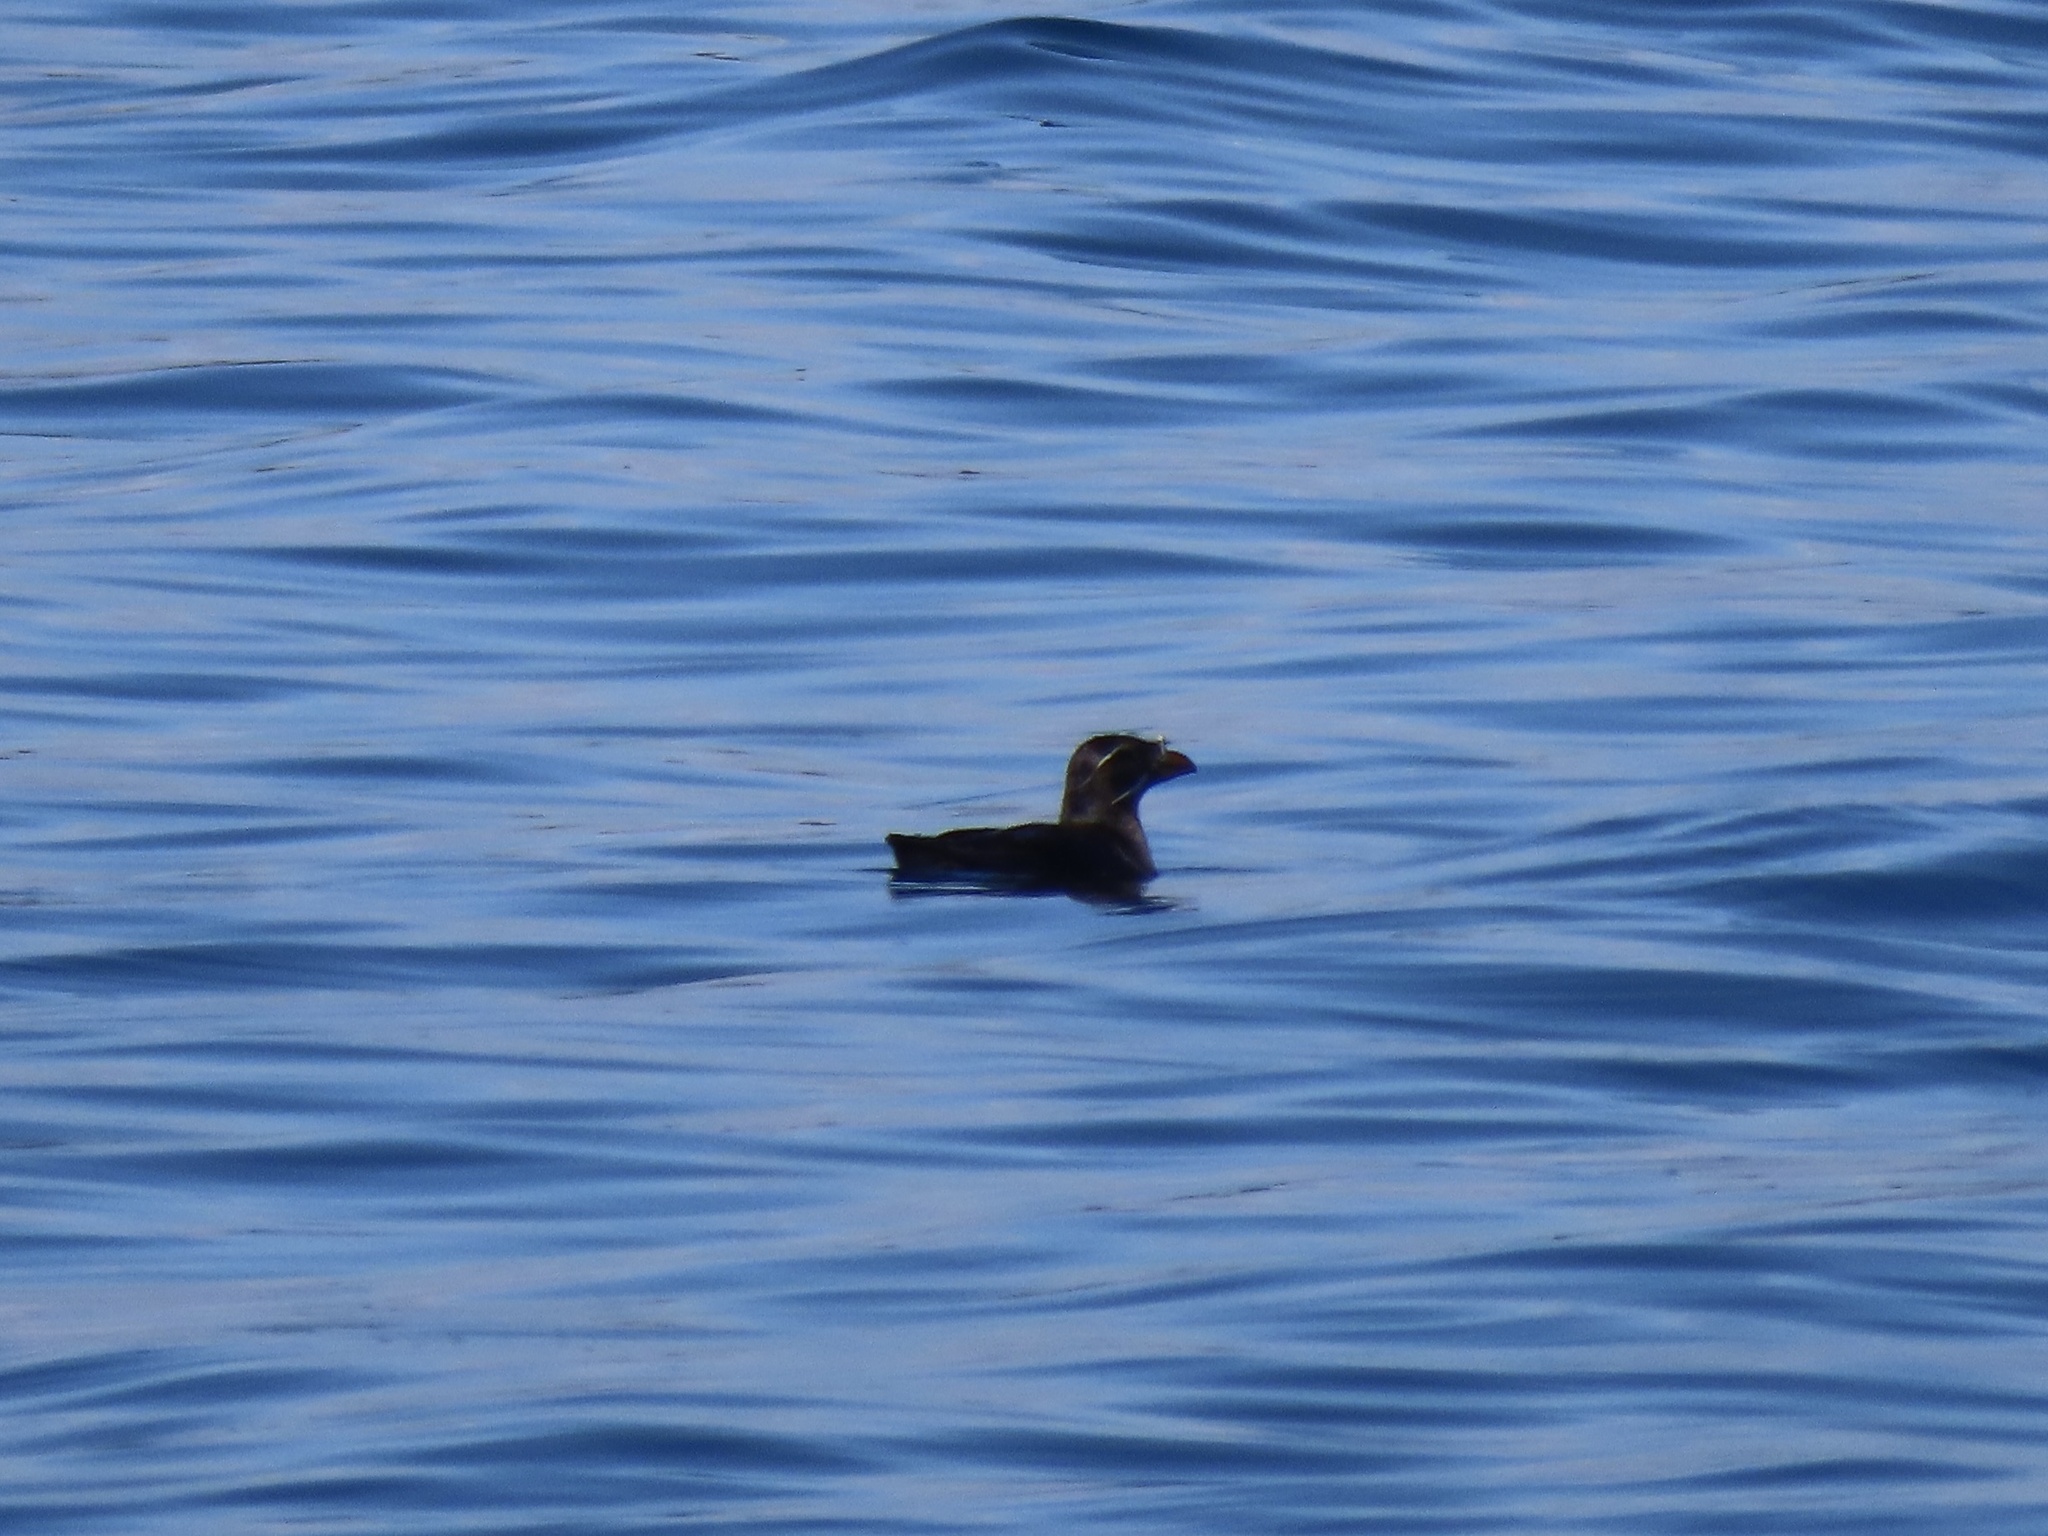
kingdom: Animalia
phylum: Chordata
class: Aves
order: Charadriiformes
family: Alcidae
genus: Cerorhinca
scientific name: Cerorhinca monocerata
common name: Rhinoceros auklet
